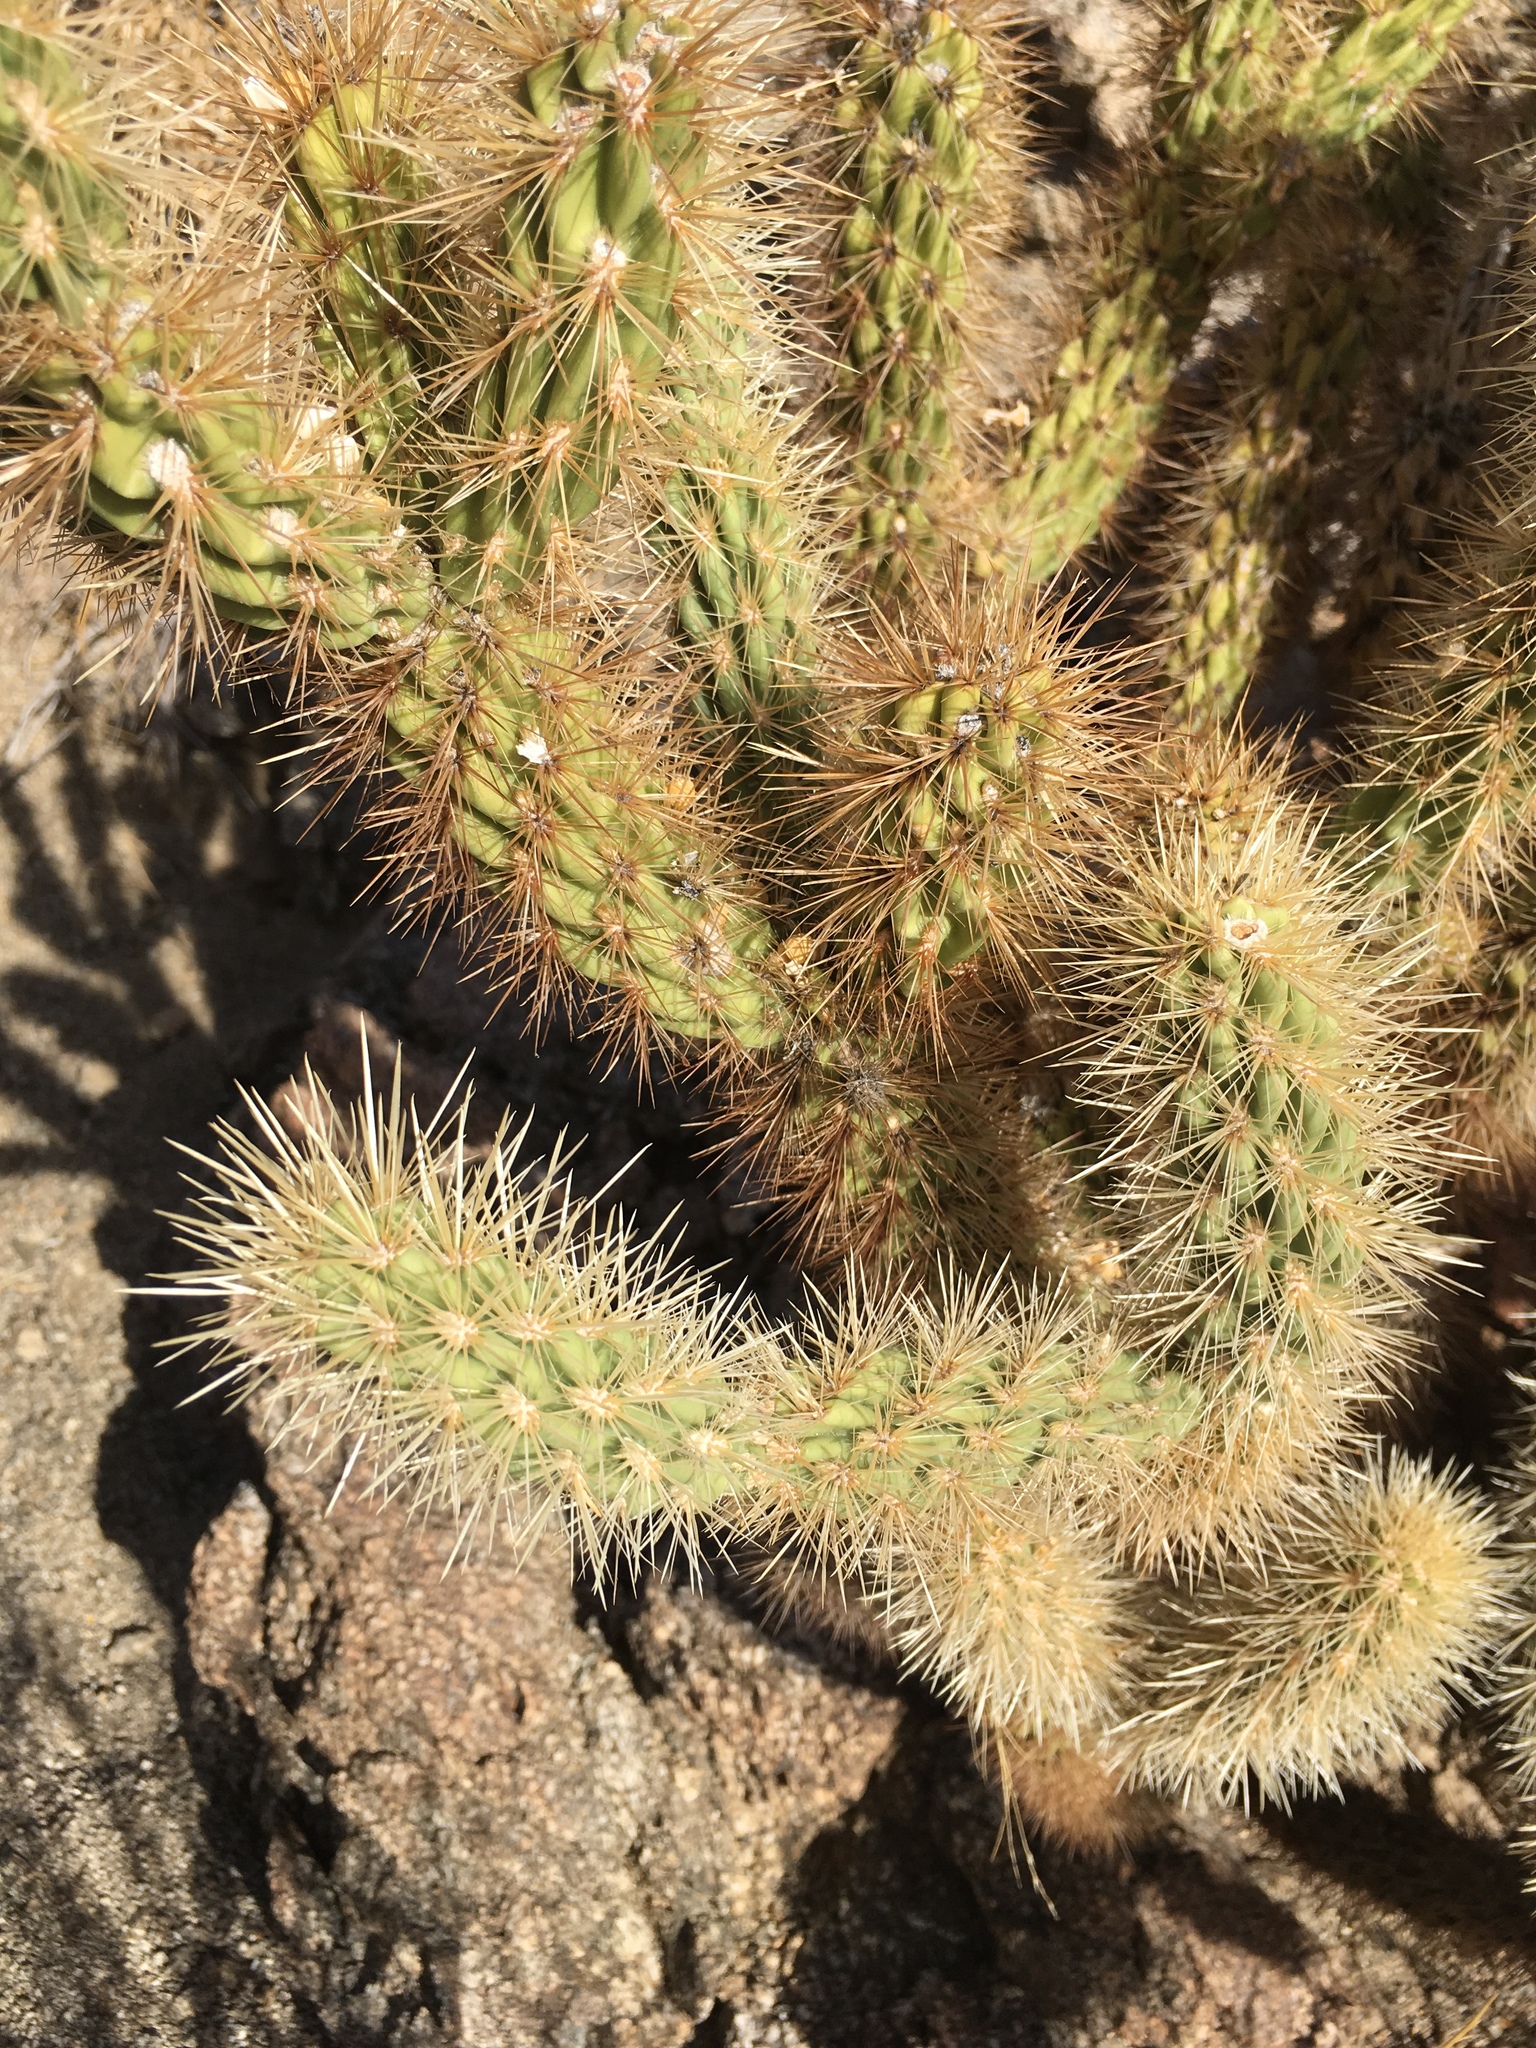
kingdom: Plantae
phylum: Tracheophyta
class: Magnoliopsida
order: Caryophyllales
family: Cactaceae
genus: Cylindropuntia
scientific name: Cylindropuntia ganderi
